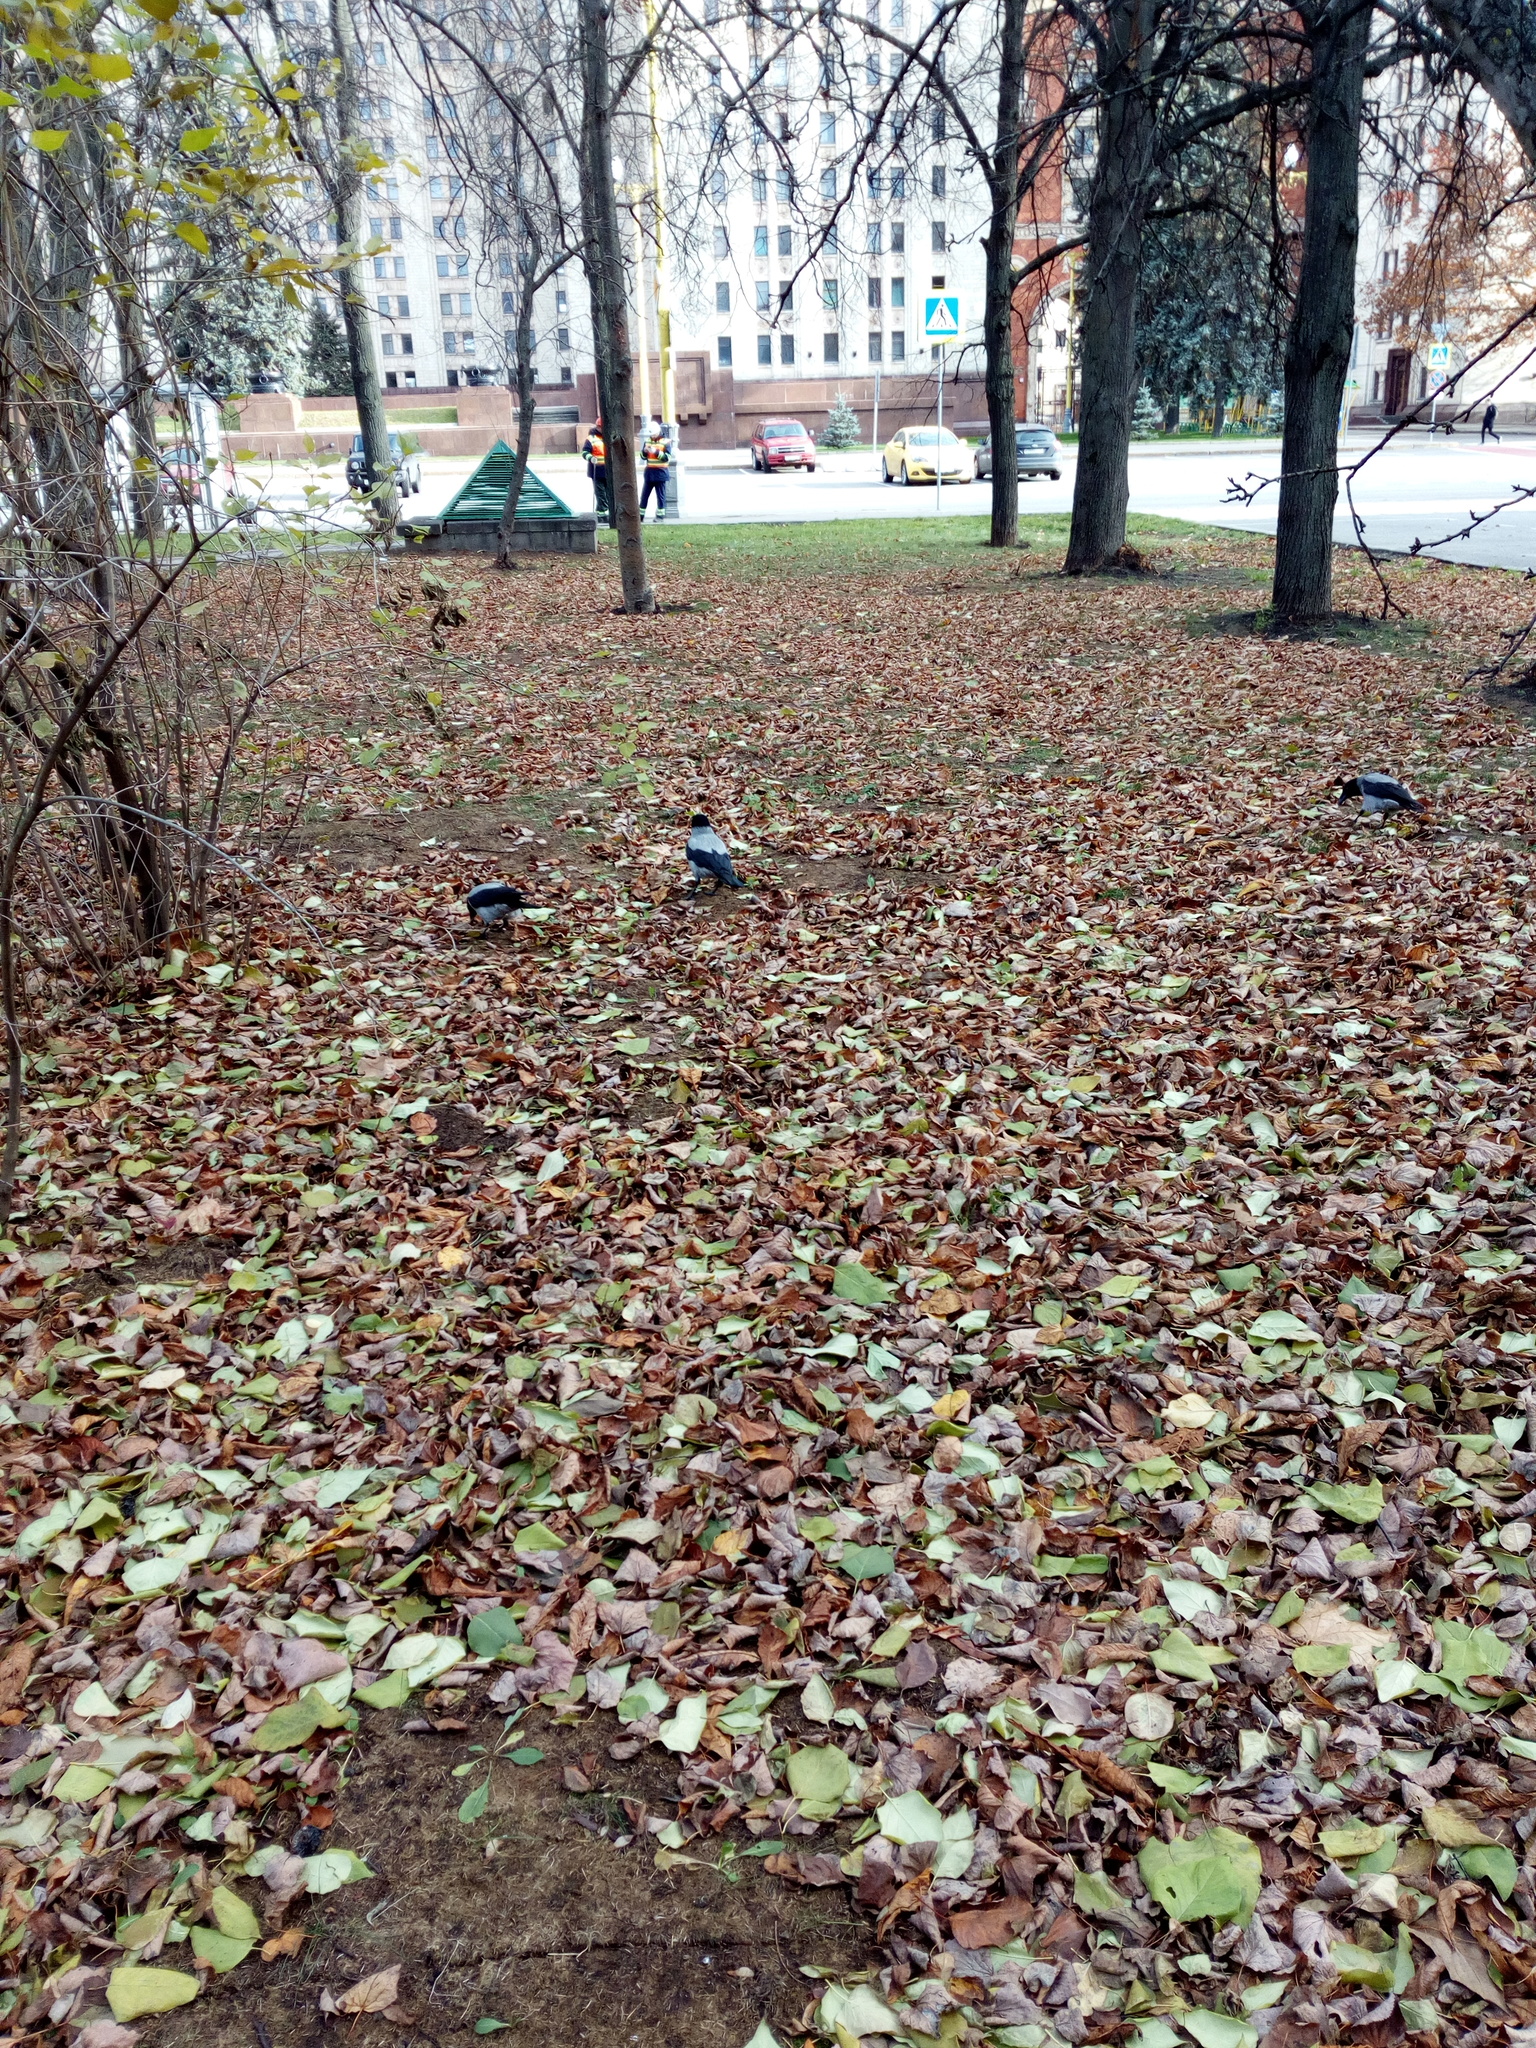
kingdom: Animalia
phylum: Chordata
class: Aves
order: Passeriformes
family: Corvidae
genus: Corvus
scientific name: Corvus cornix
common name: Hooded crow
